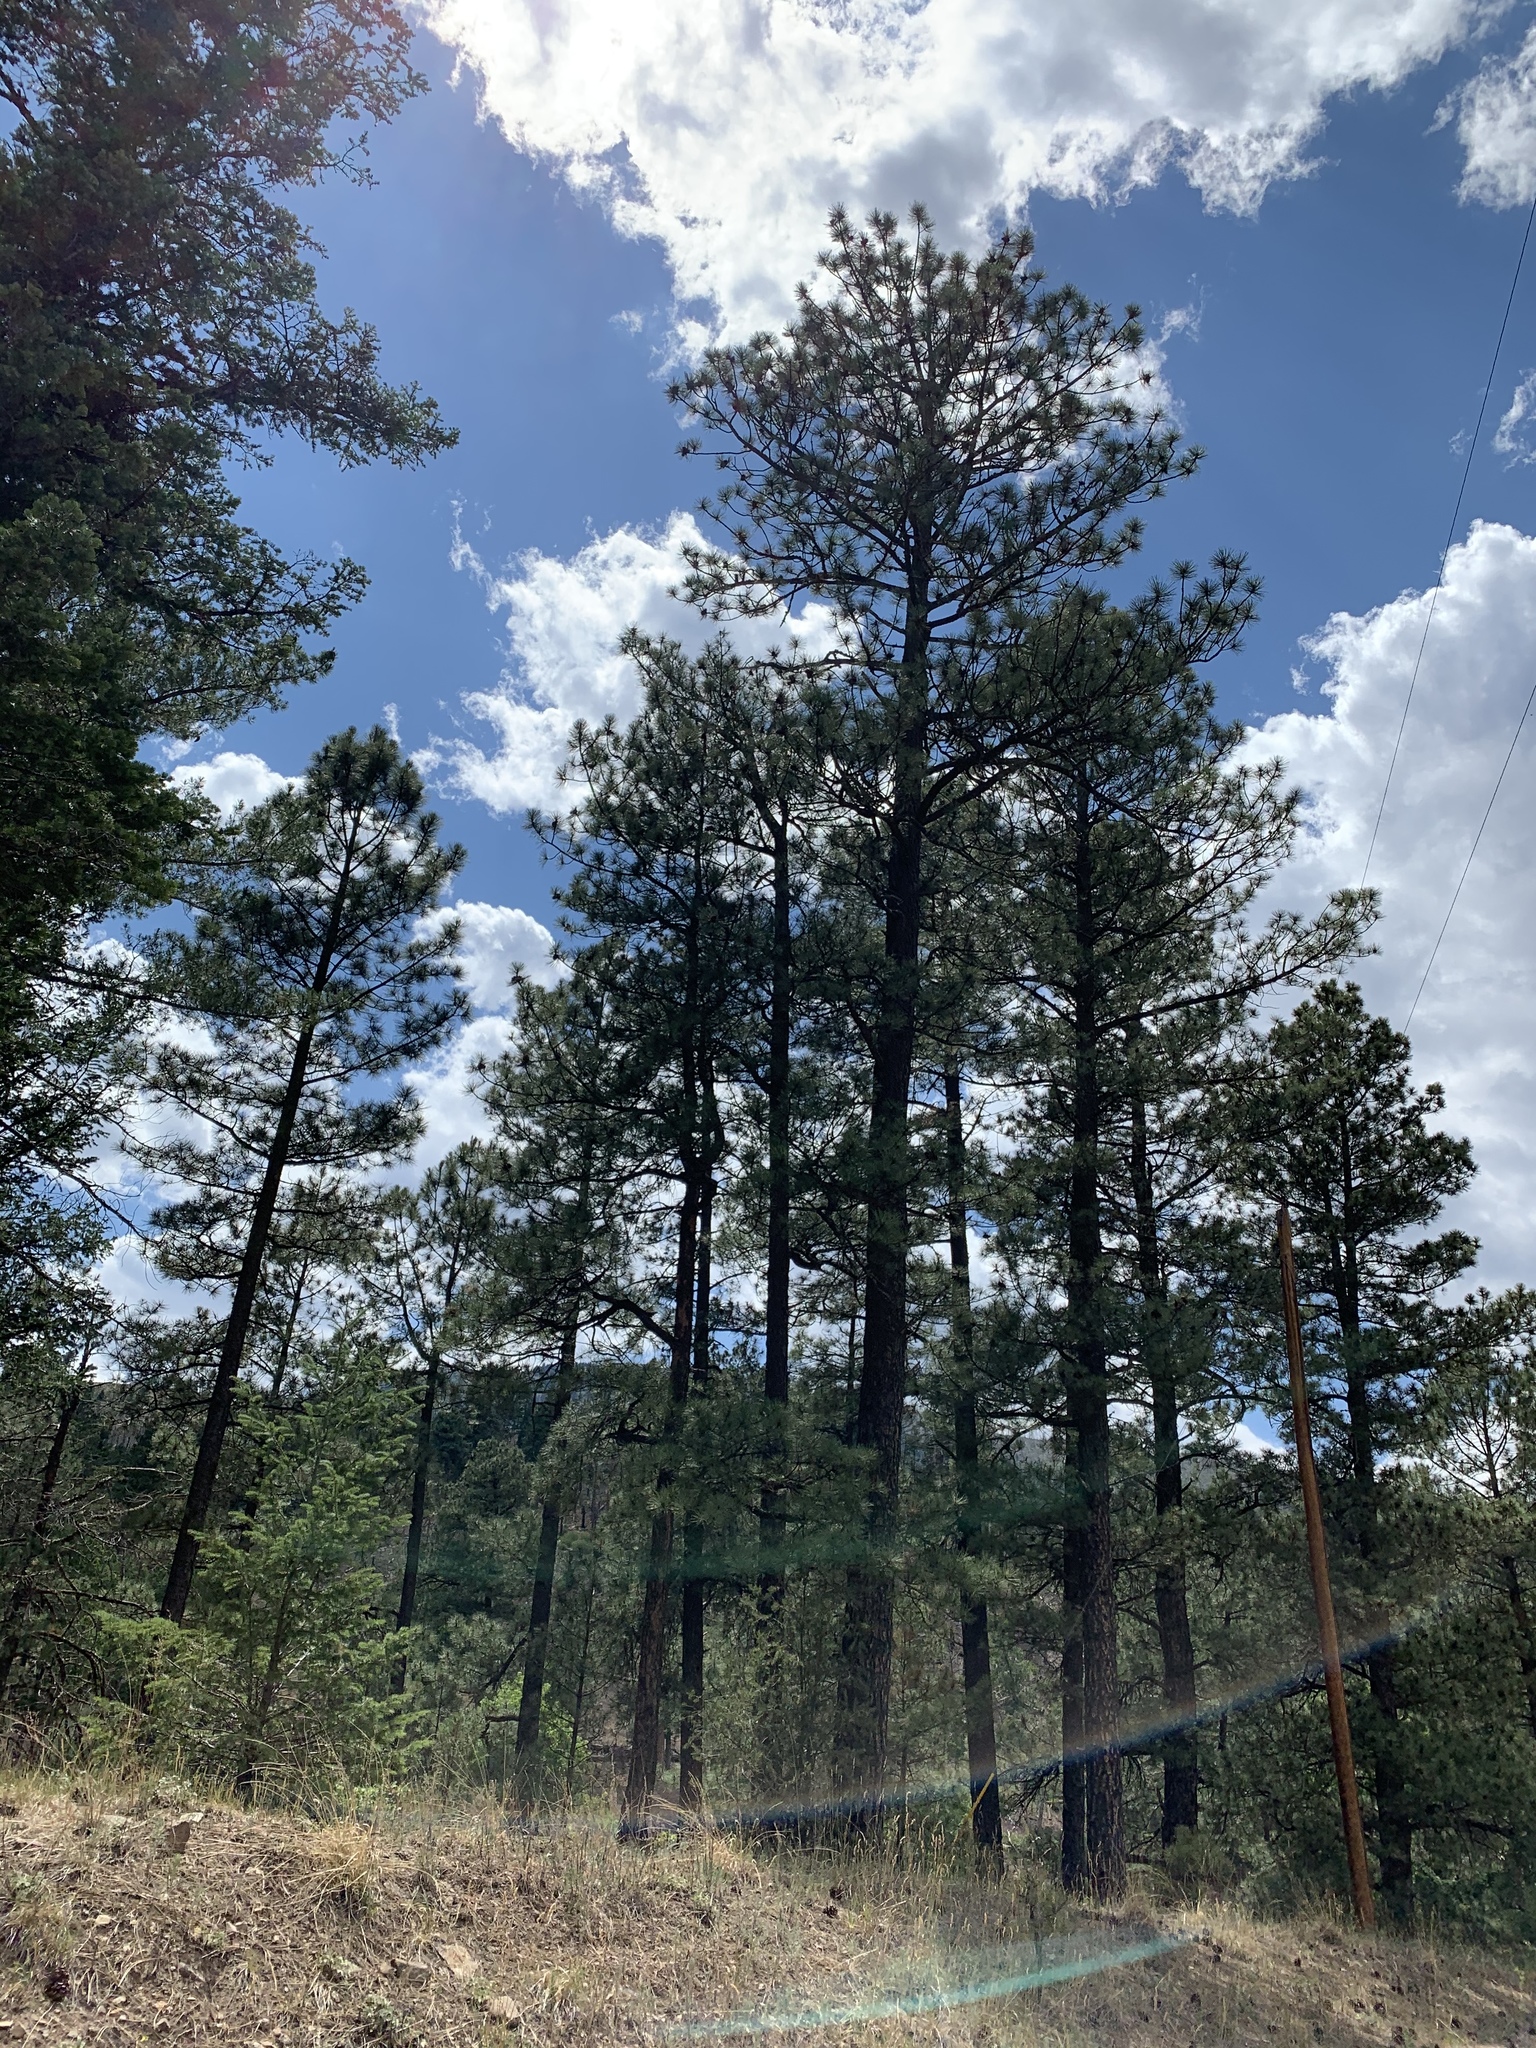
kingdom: Plantae
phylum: Tracheophyta
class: Pinopsida
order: Pinales
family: Pinaceae
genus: Pinus
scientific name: Pinus ponderosa
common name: Western yellow-pine
